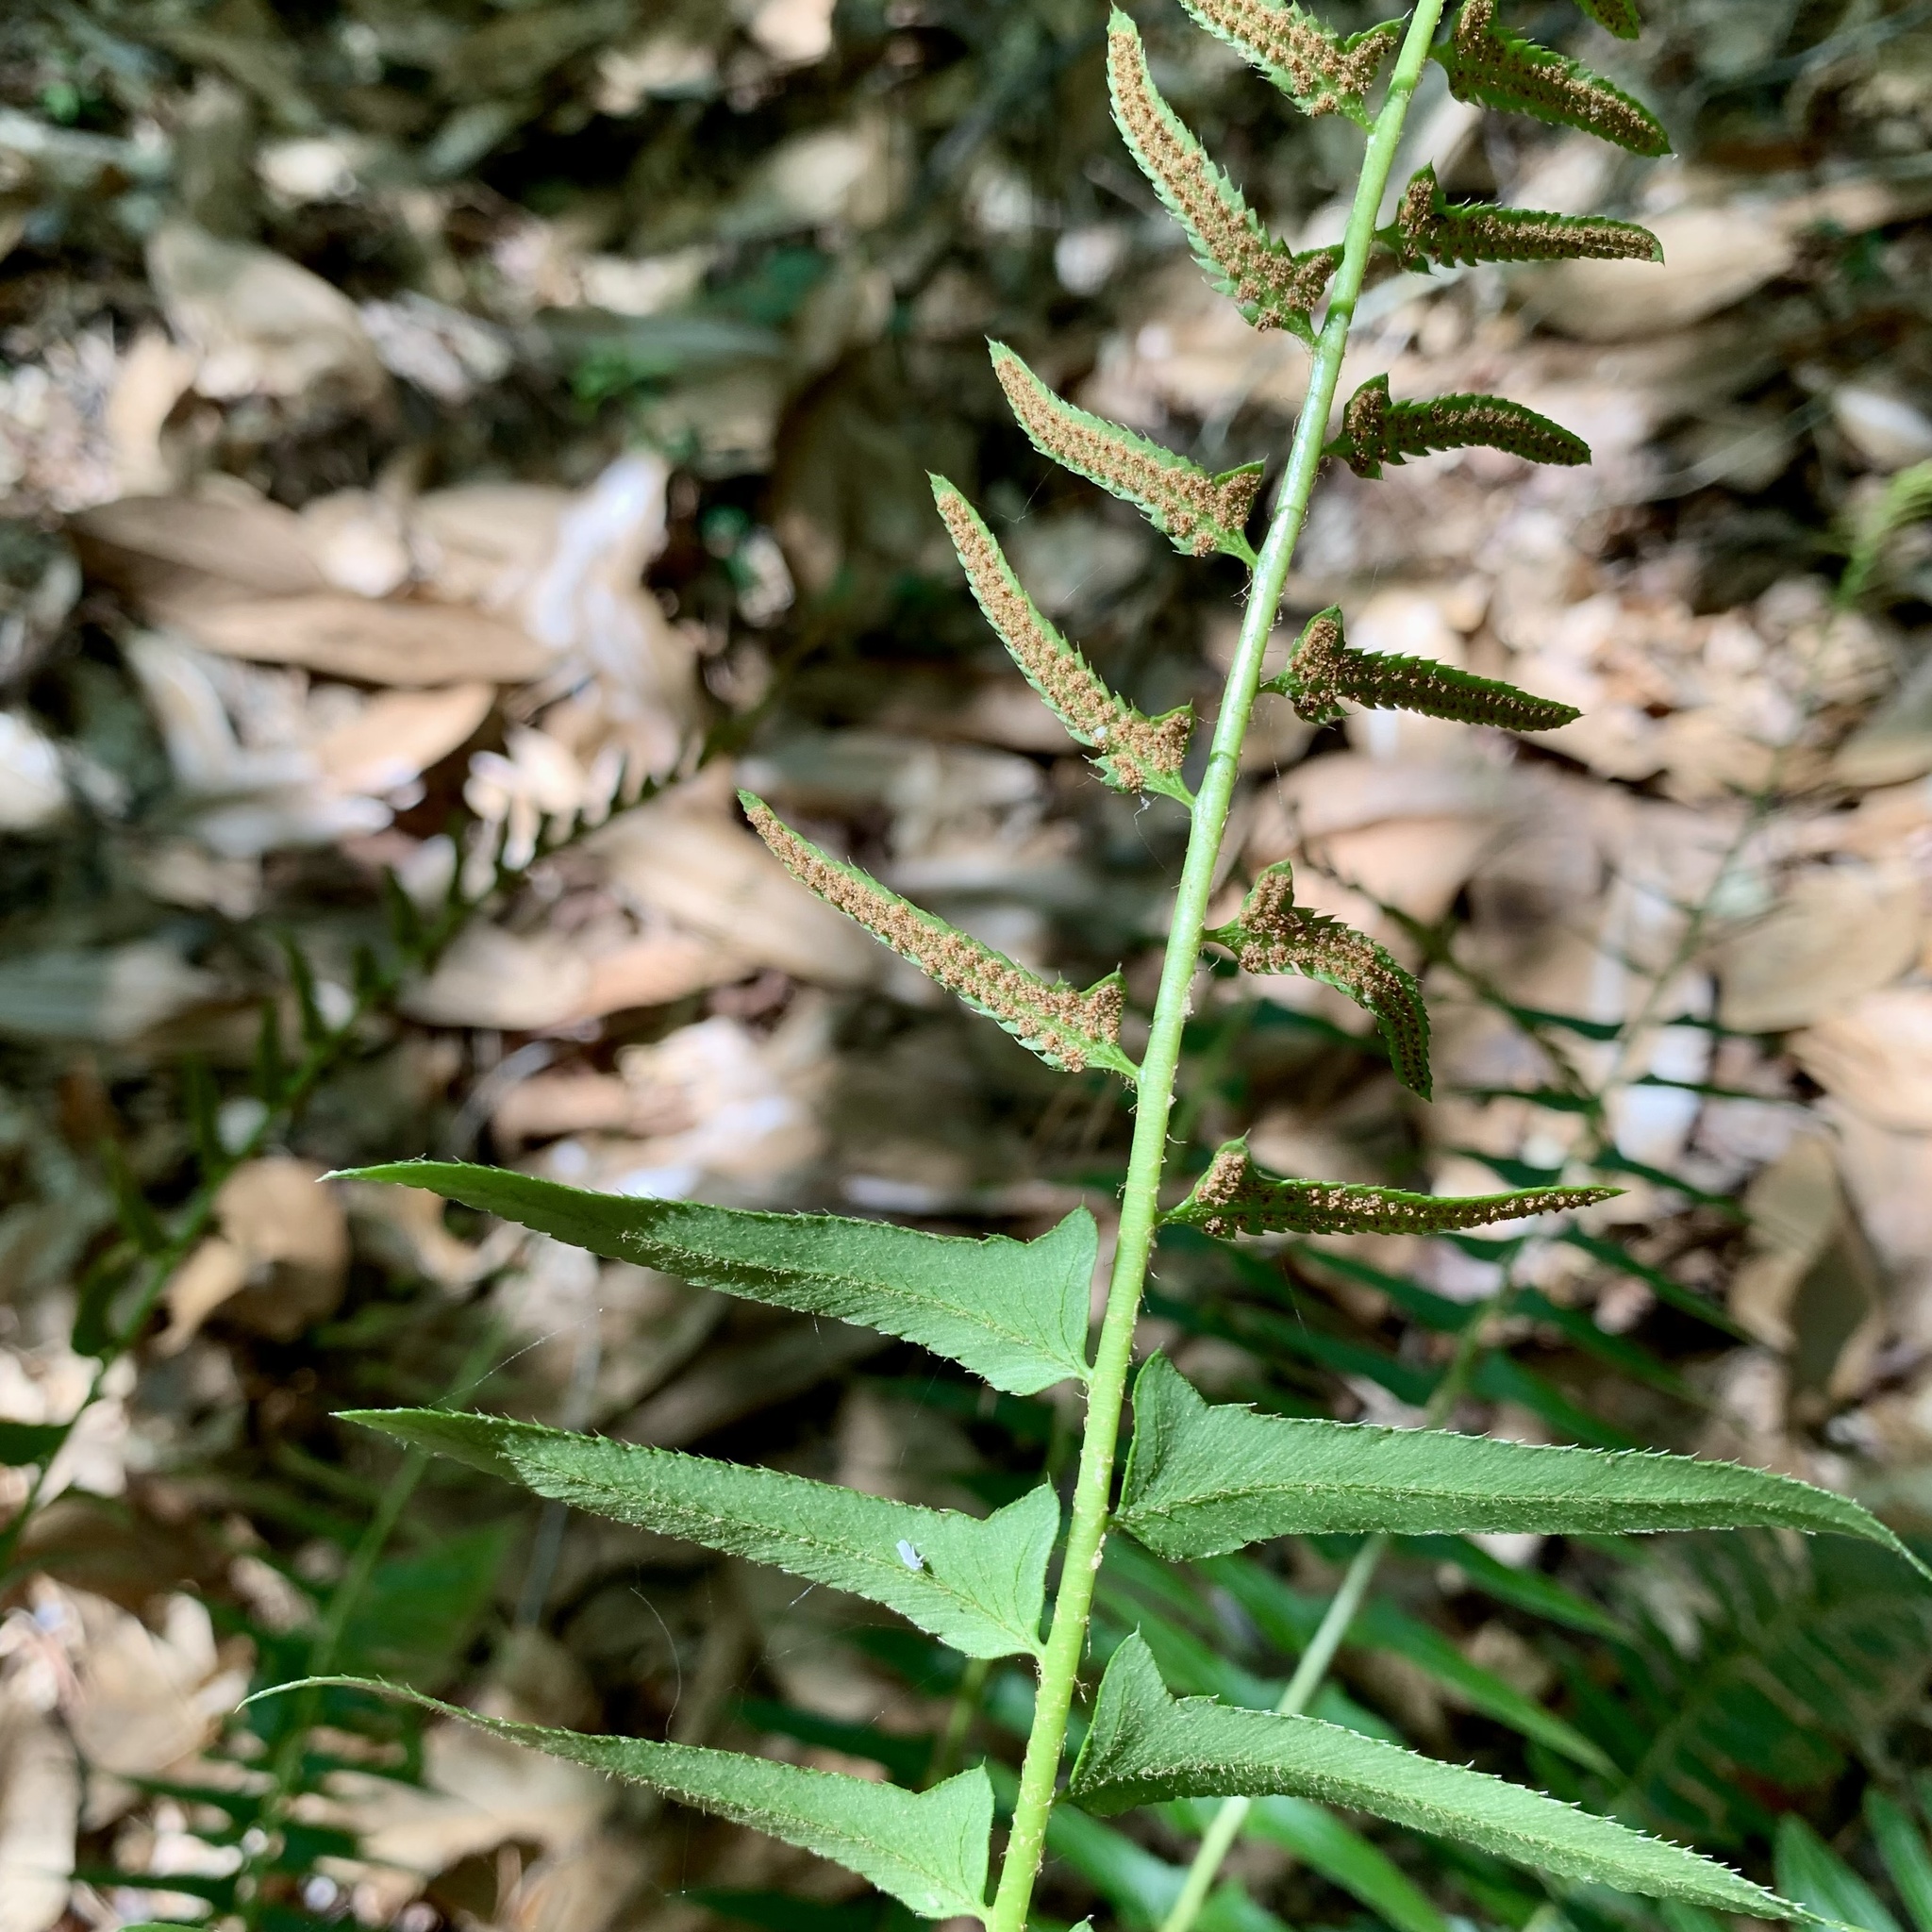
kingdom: Plantae
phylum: Tracheophyta
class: Polypodiopsida
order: Polypodiales
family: Dryopteridaceae
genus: Polystichum
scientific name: Polystichum acrostichoides
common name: Christmas fern
